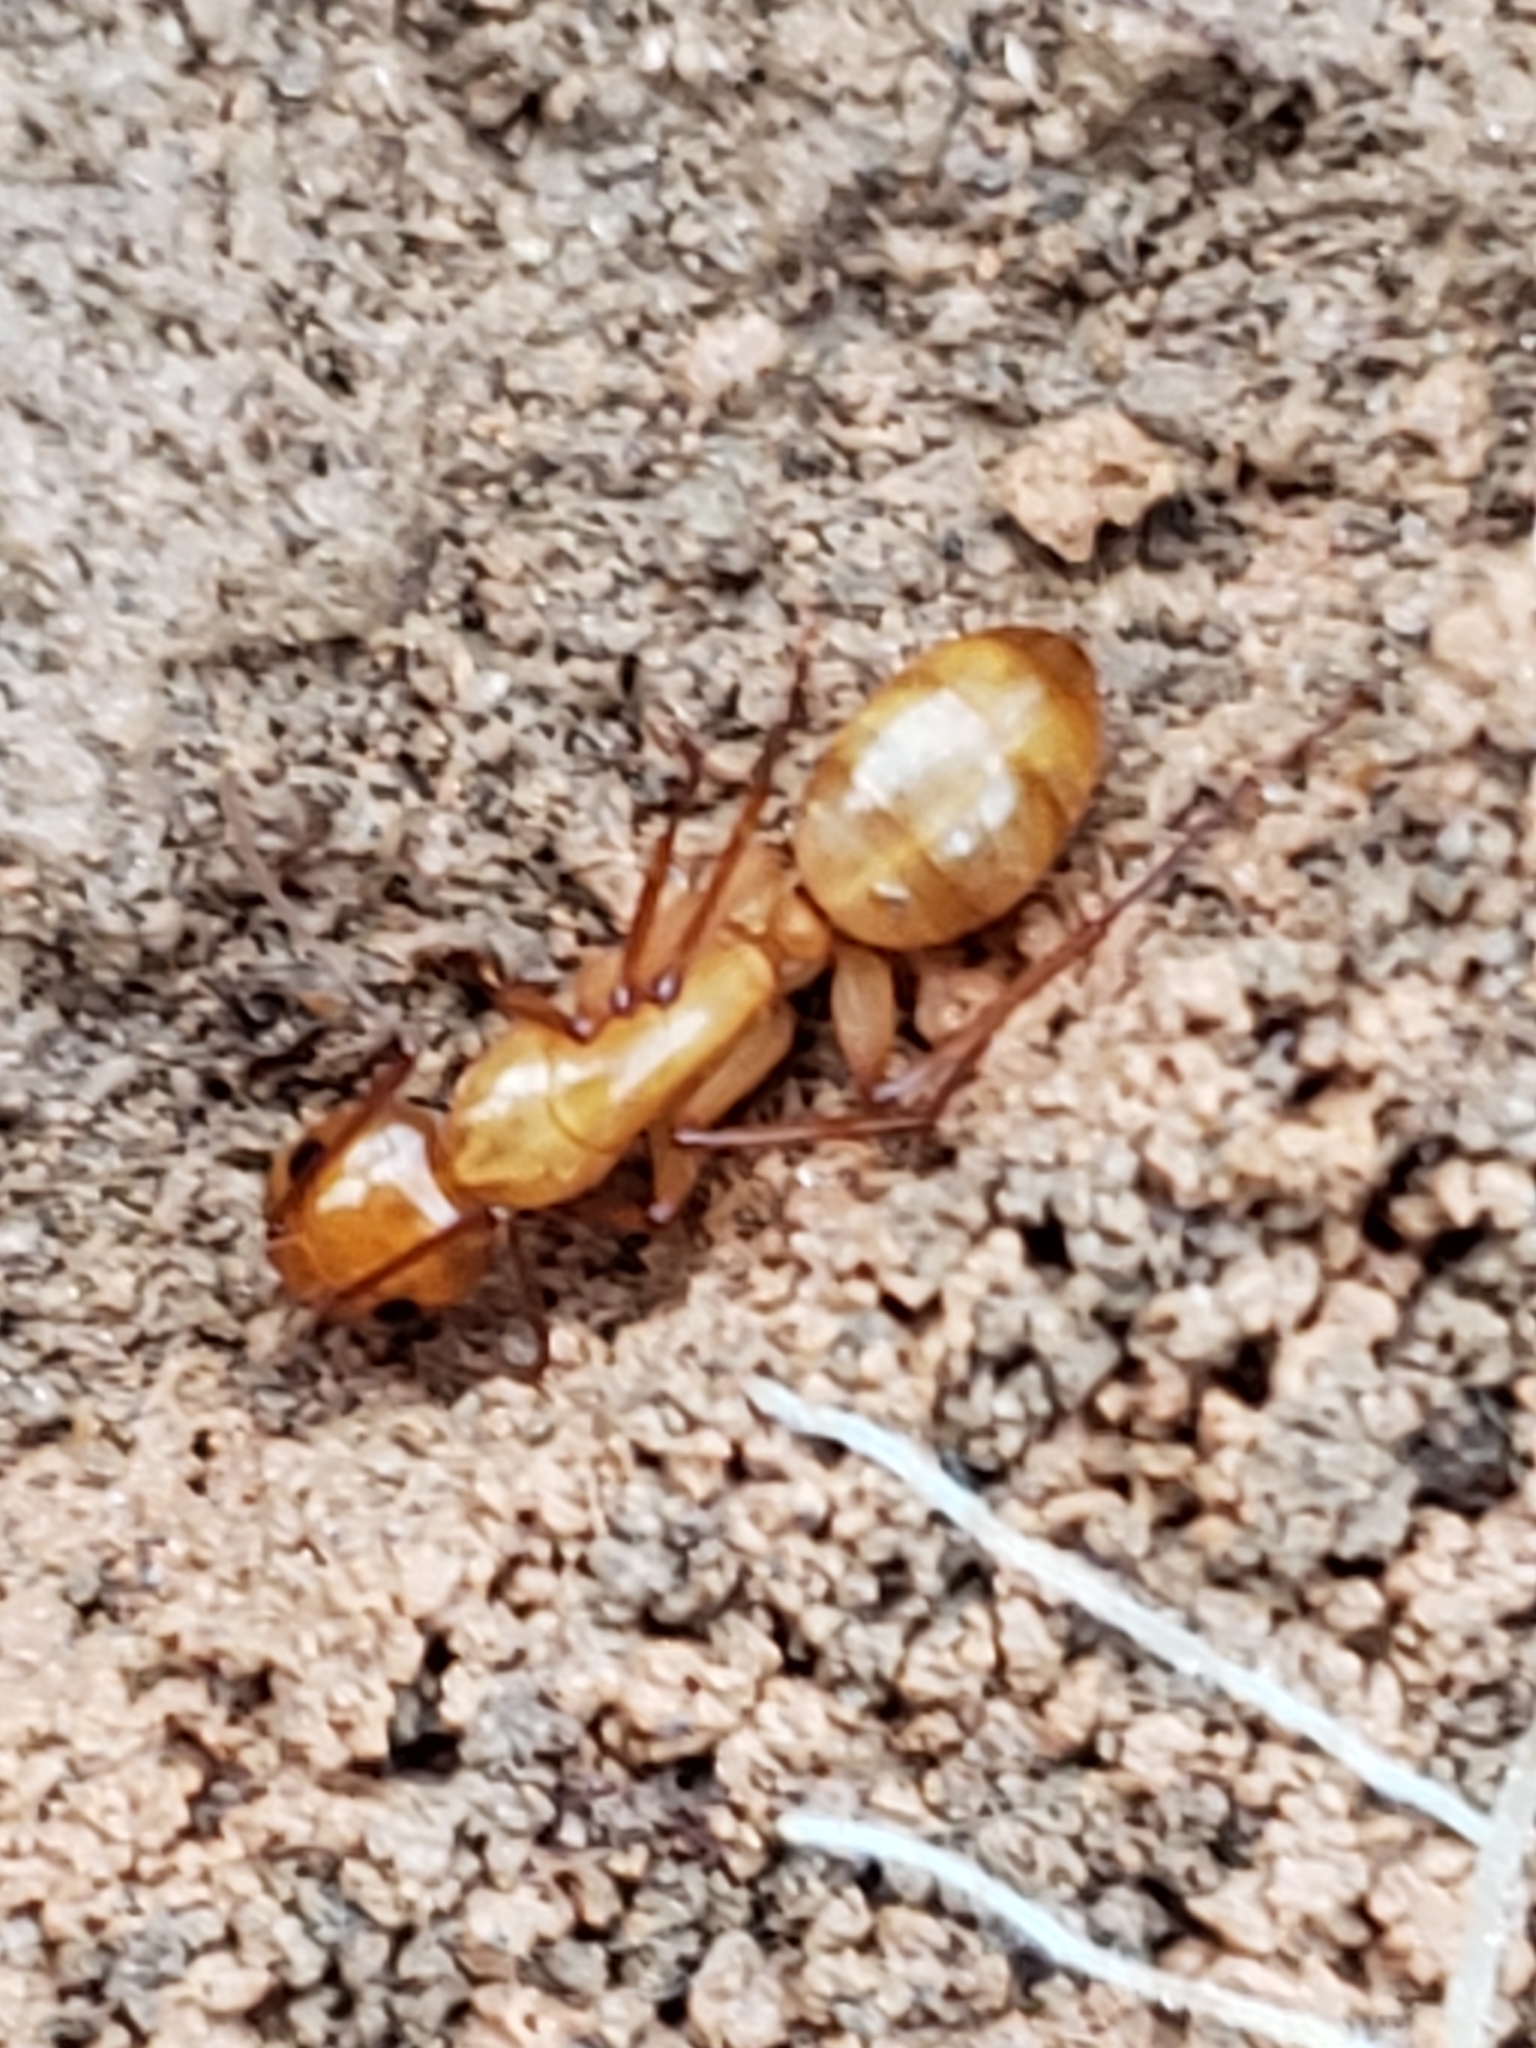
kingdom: Animalia
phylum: Arthropoda
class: Insecta
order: Hymenoptera
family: Formicidae
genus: Camponotus
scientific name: Camponotus castaneus
